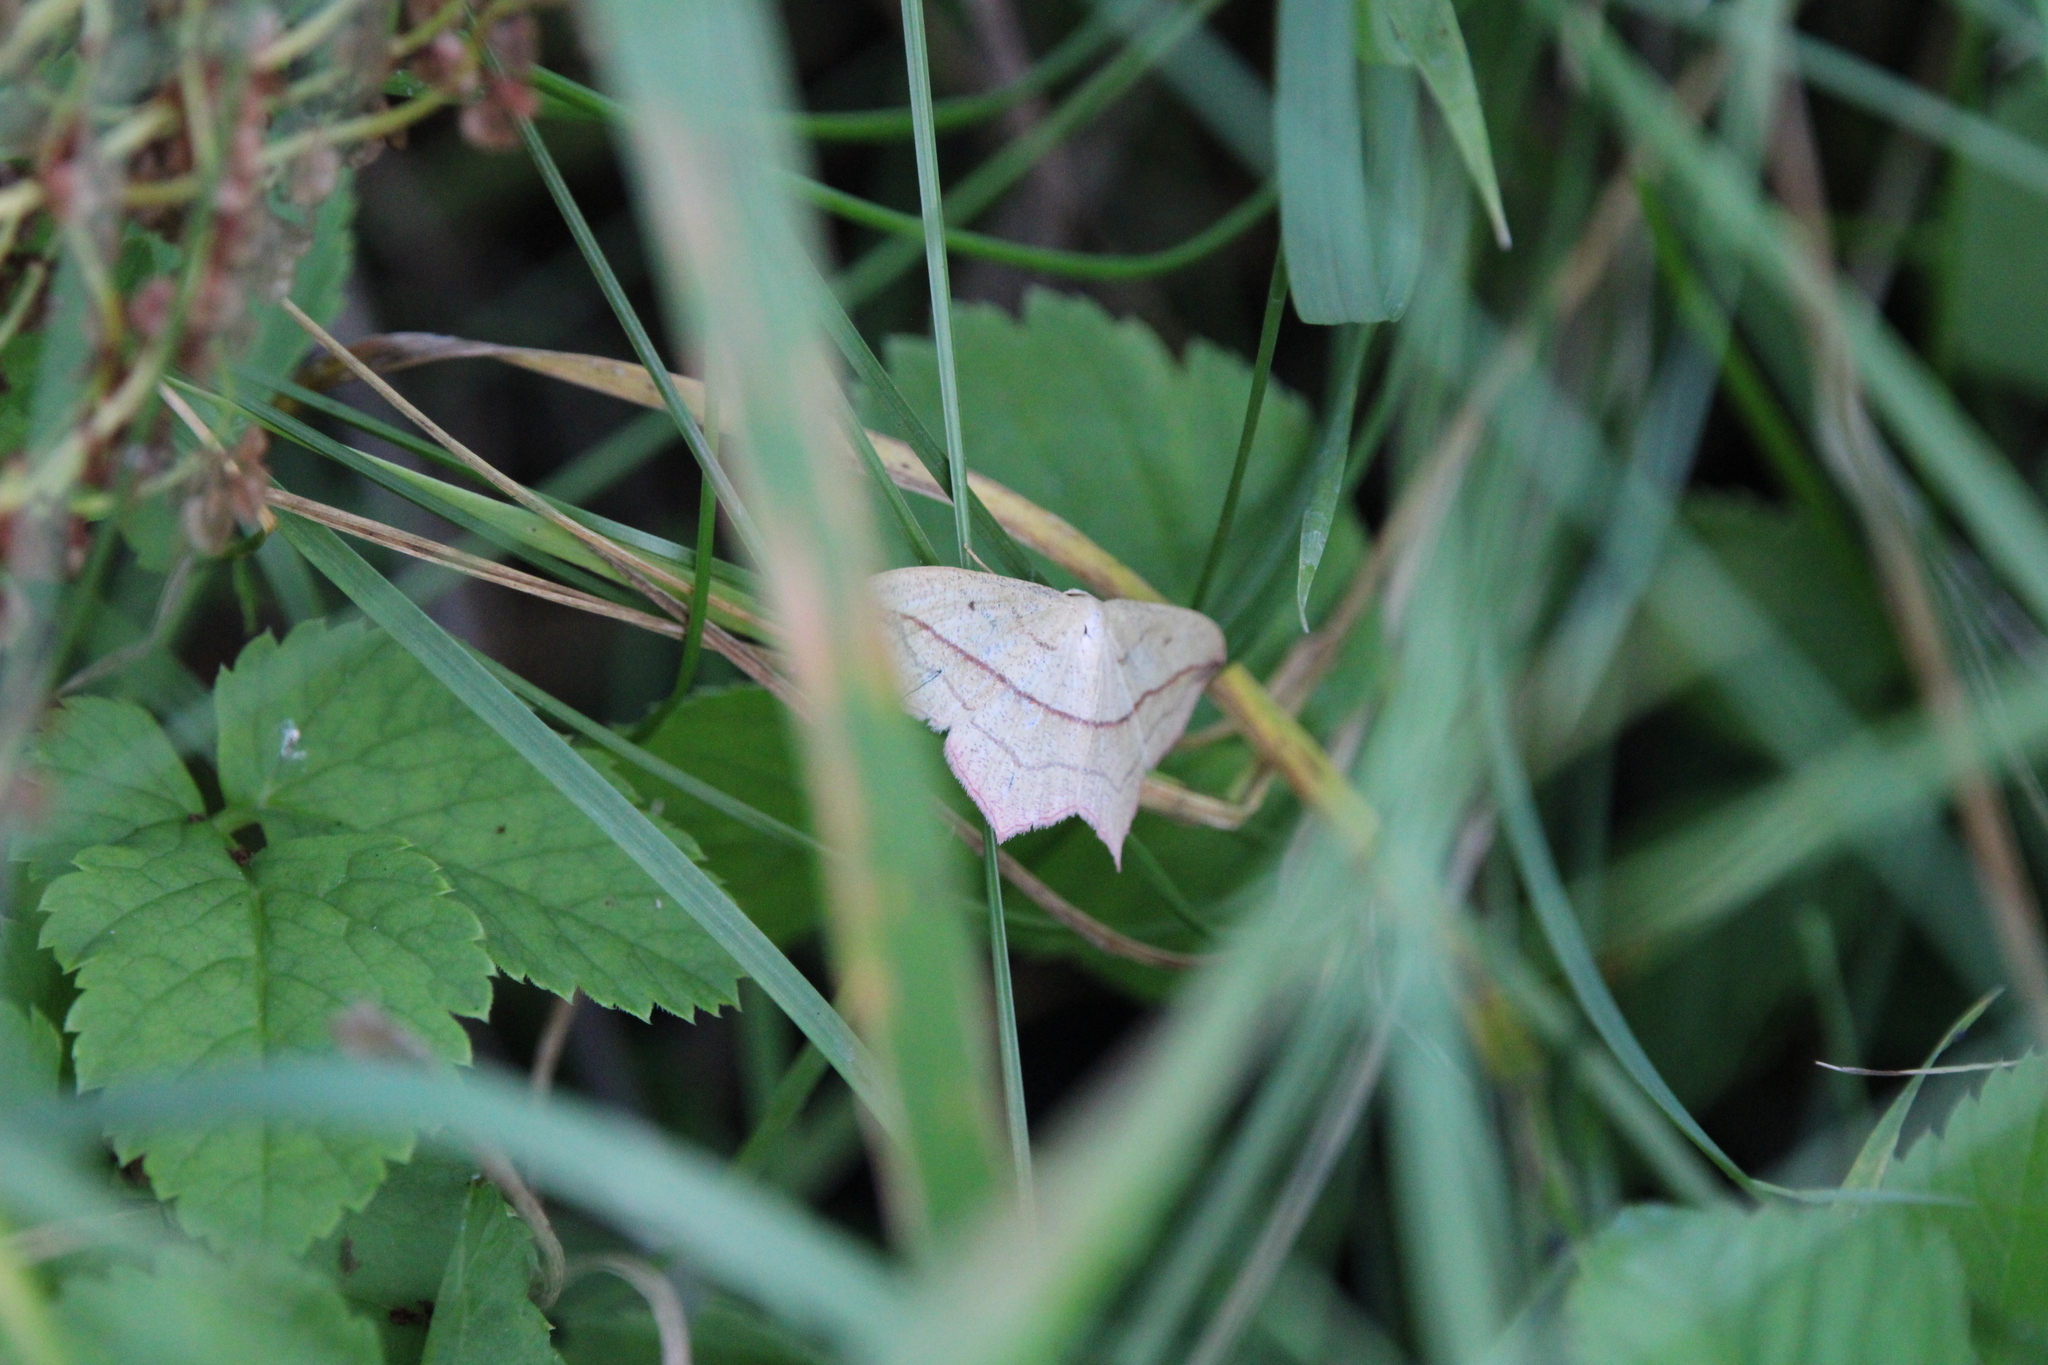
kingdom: Animalia
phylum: Arthropoda
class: Insecta
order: Lepidoptera
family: Geometridae
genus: Timandra
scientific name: Timandra comae
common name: Blood-vein
